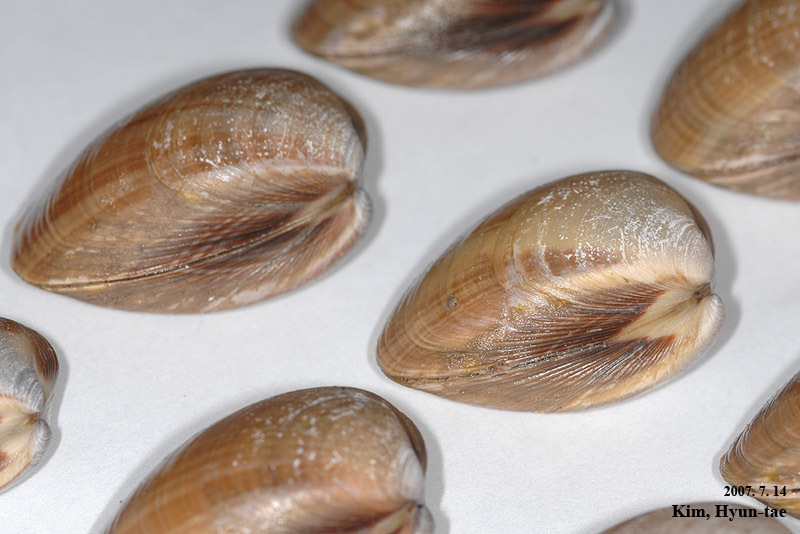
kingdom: Animalia
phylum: Mollusca
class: Bivalvia
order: Venerida
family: Mactridae
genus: Mactra
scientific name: Mactra chinensis
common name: Chinese surf clam
